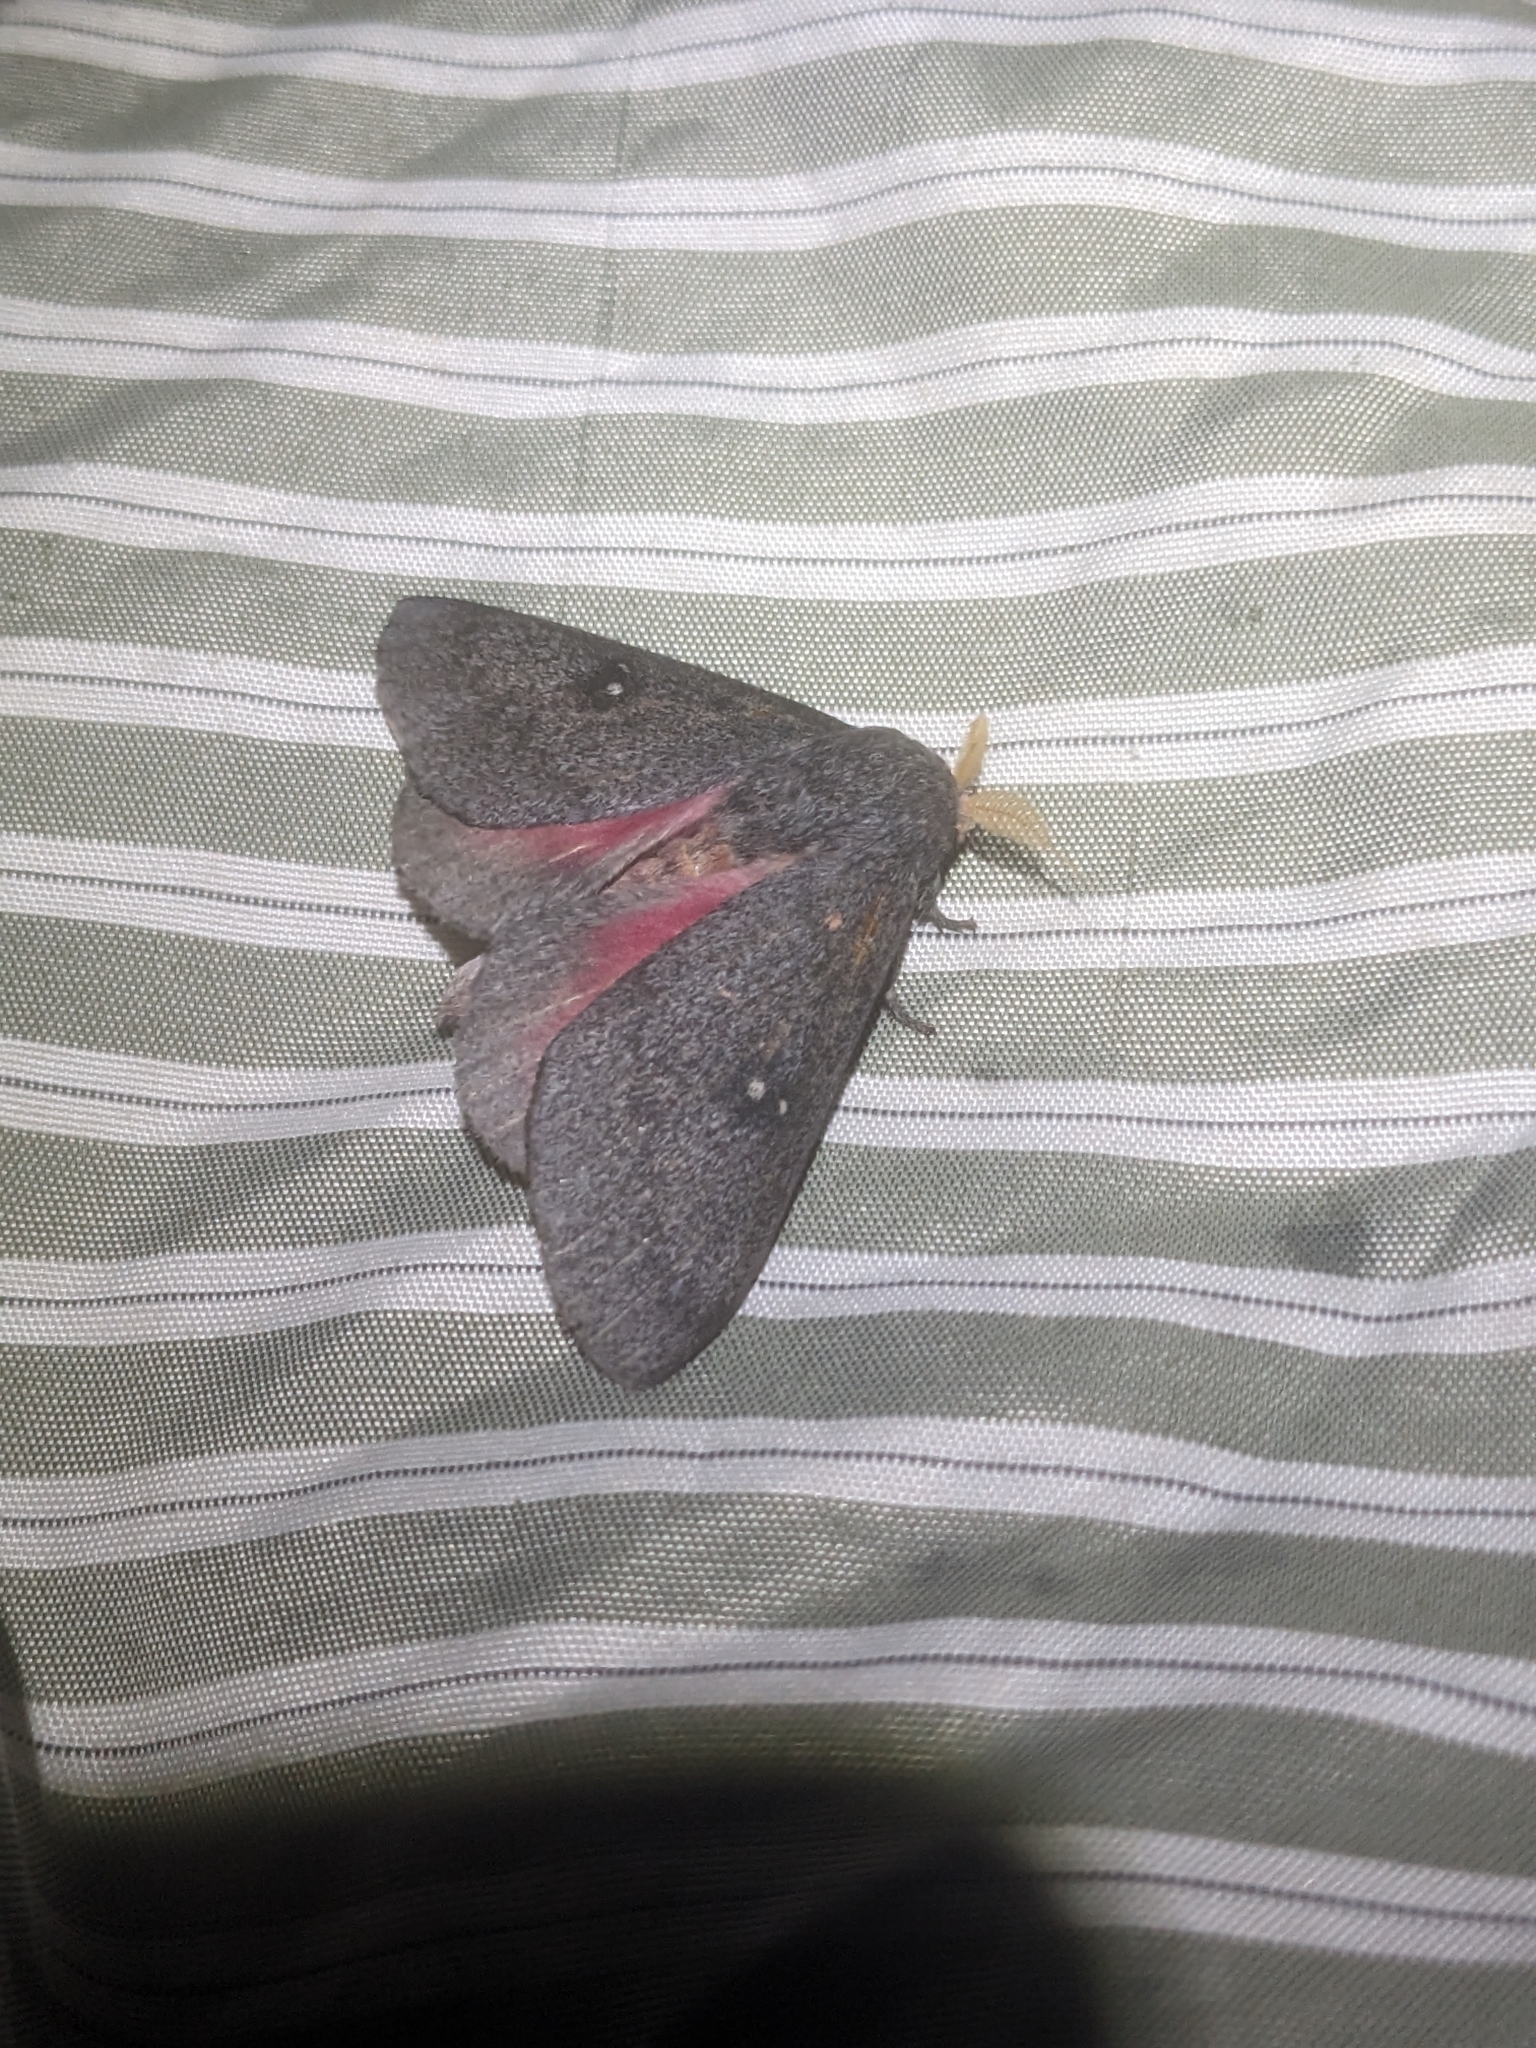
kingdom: Animalia
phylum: Arthropoda
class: Insecta
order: Lepidoptera
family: Saturniidae
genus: Syssphinx
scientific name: Syssphinx hubbardi
